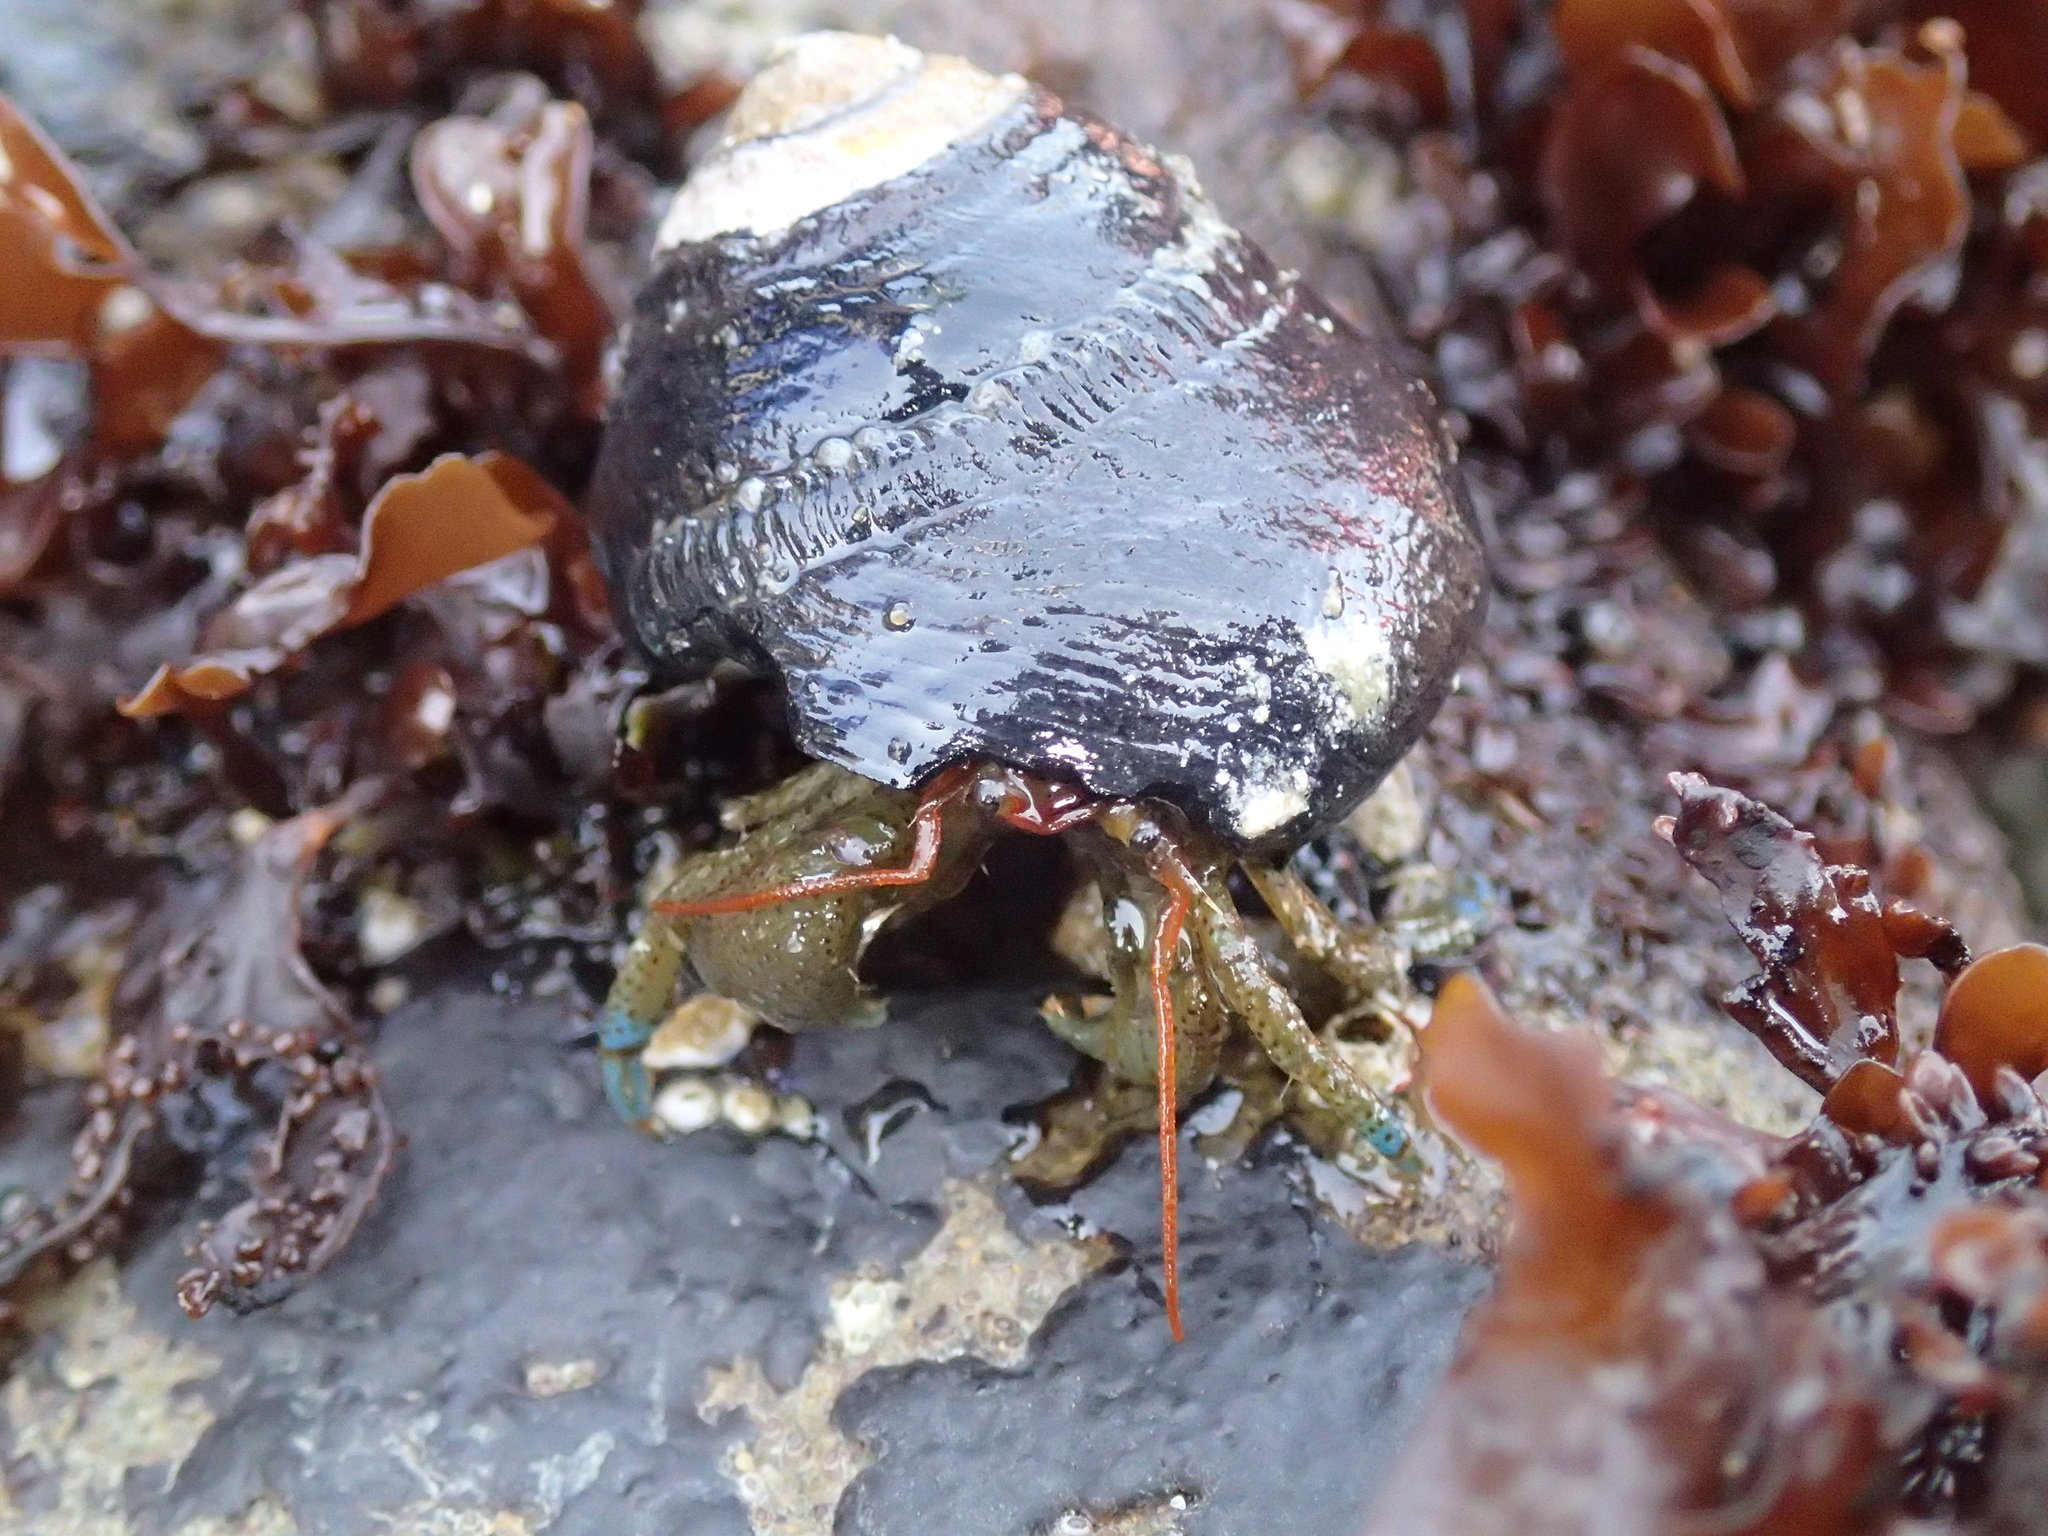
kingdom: Animalia
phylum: Arthropoda
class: Malacostraca
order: Decapoda
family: Paguridae
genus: Pagurus
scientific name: Pagurus samuelis
